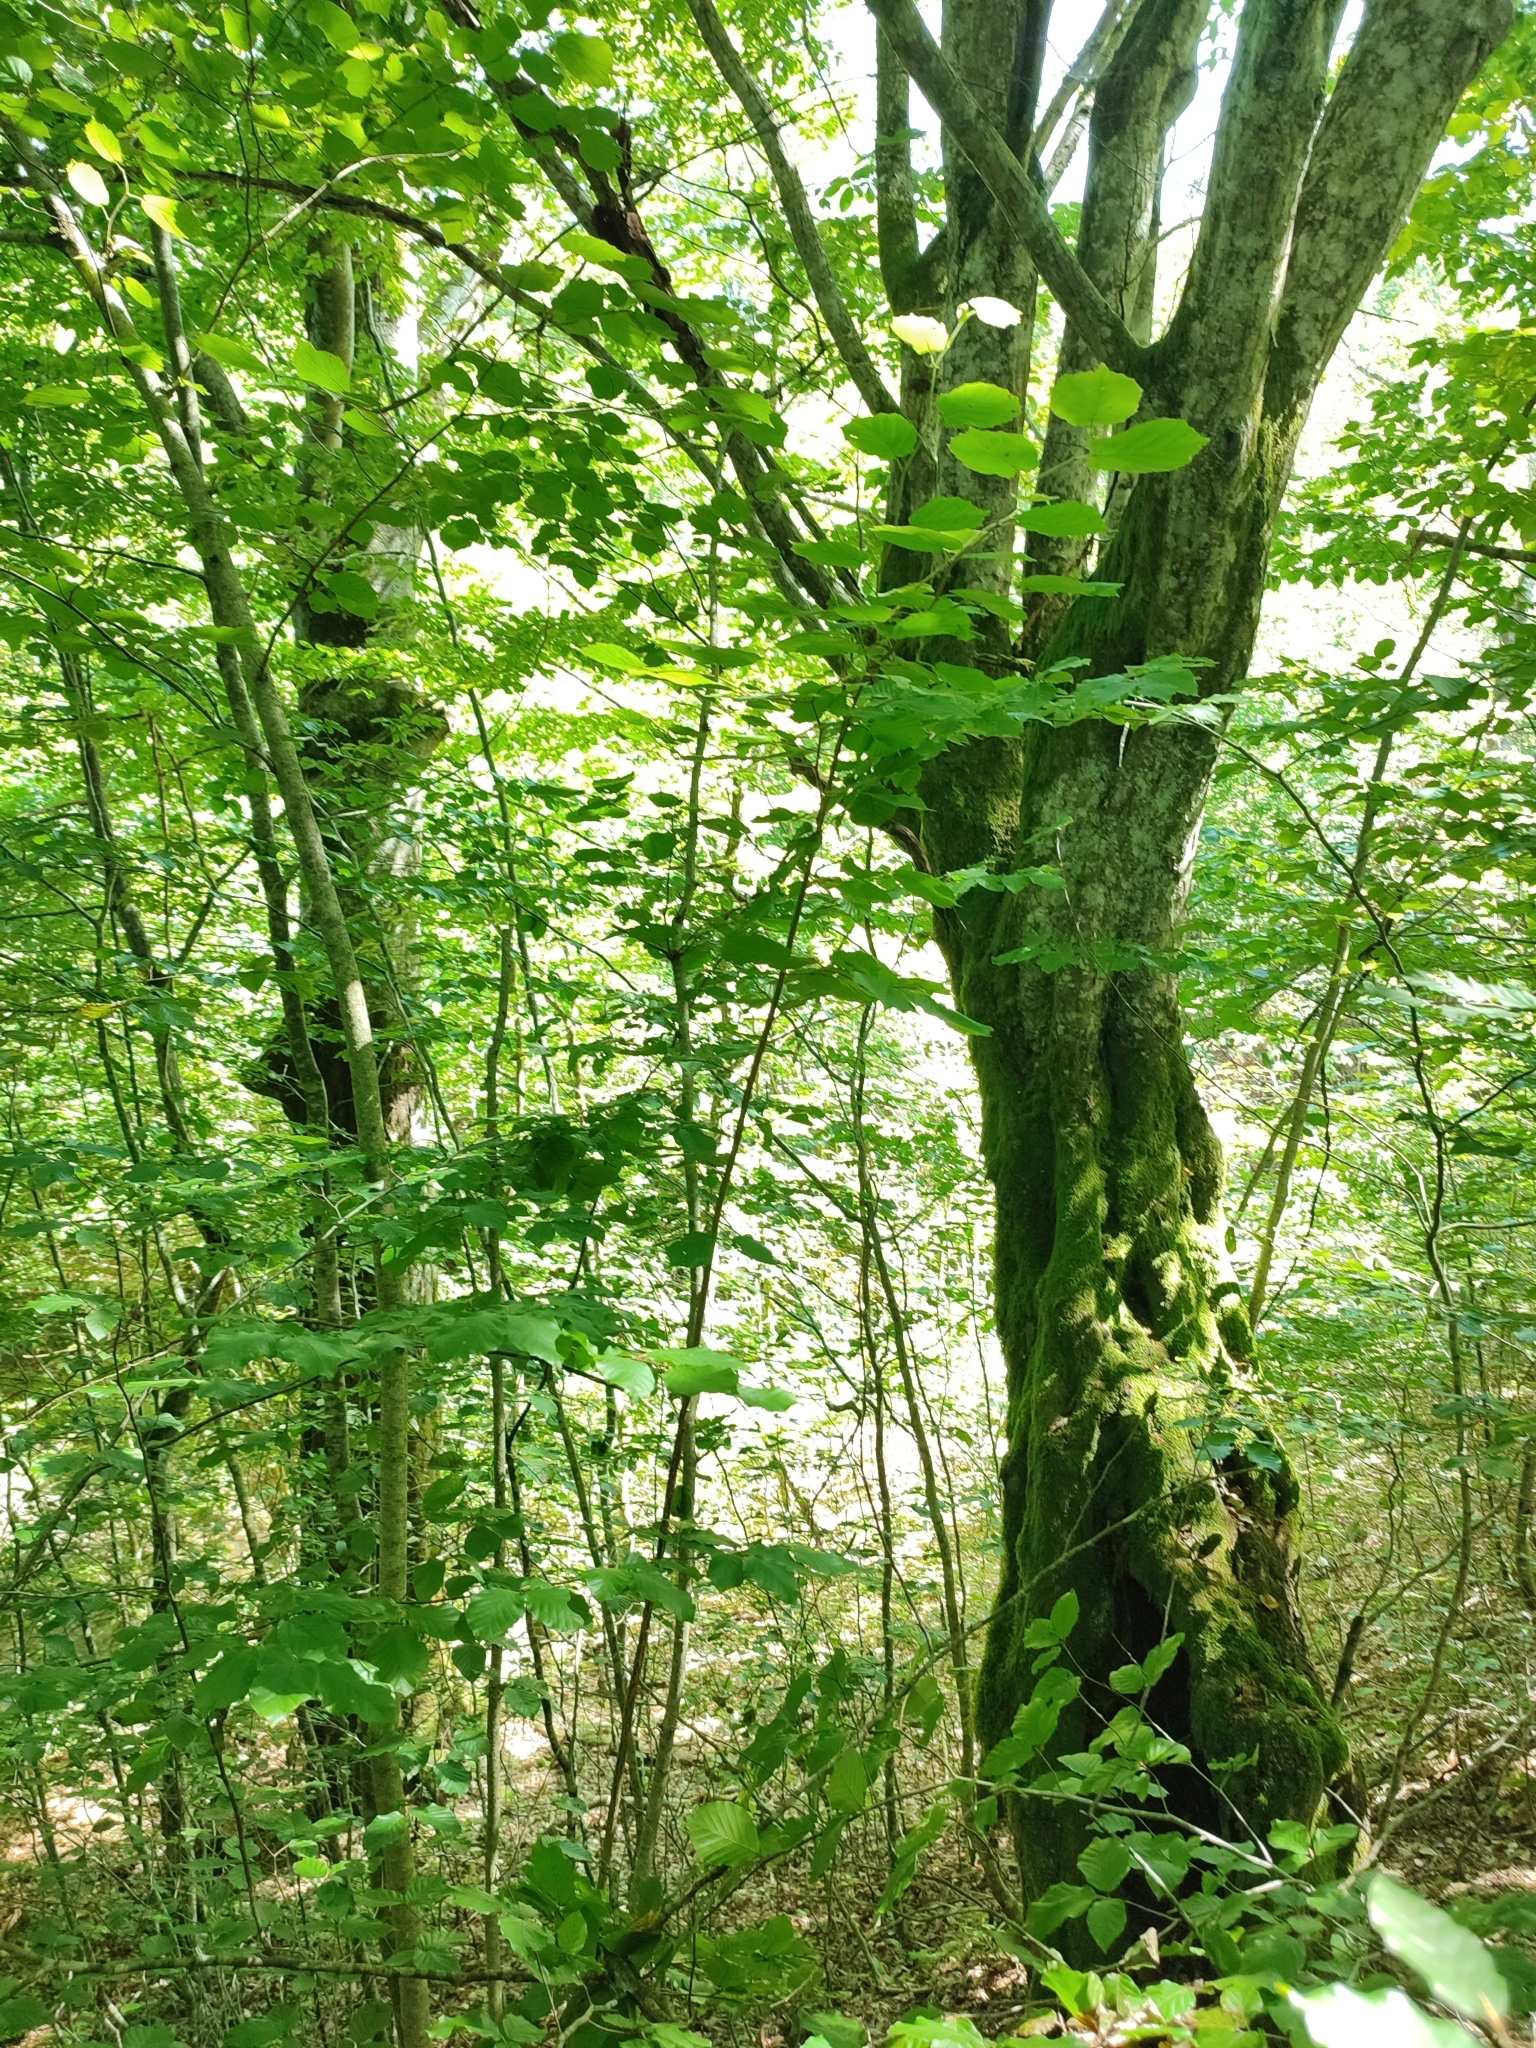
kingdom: Plantae
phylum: Tracheophyta
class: Magnoliopsida
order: Fagales
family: Fagaceae
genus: Fagus
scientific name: Fagus sylvatica
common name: Beech
